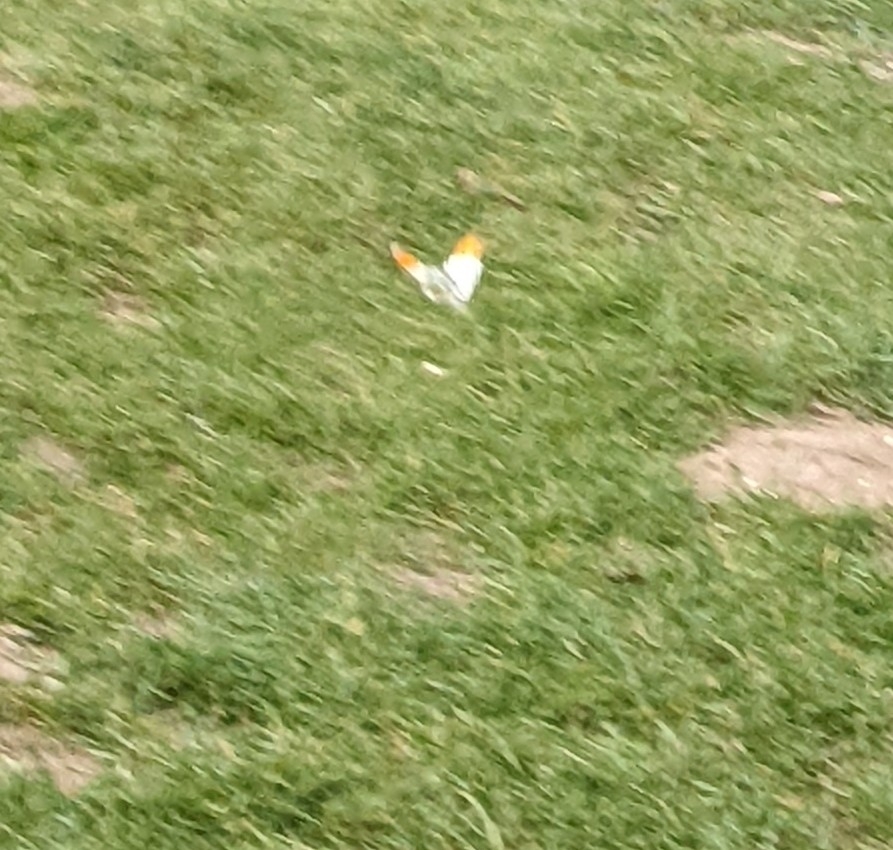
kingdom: Animalia
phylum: Arthropoda
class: Insecta
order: Lepidoptera
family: Pieridae
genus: Anthocharis
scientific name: Anthocharis cardamines
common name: Orange-tip
